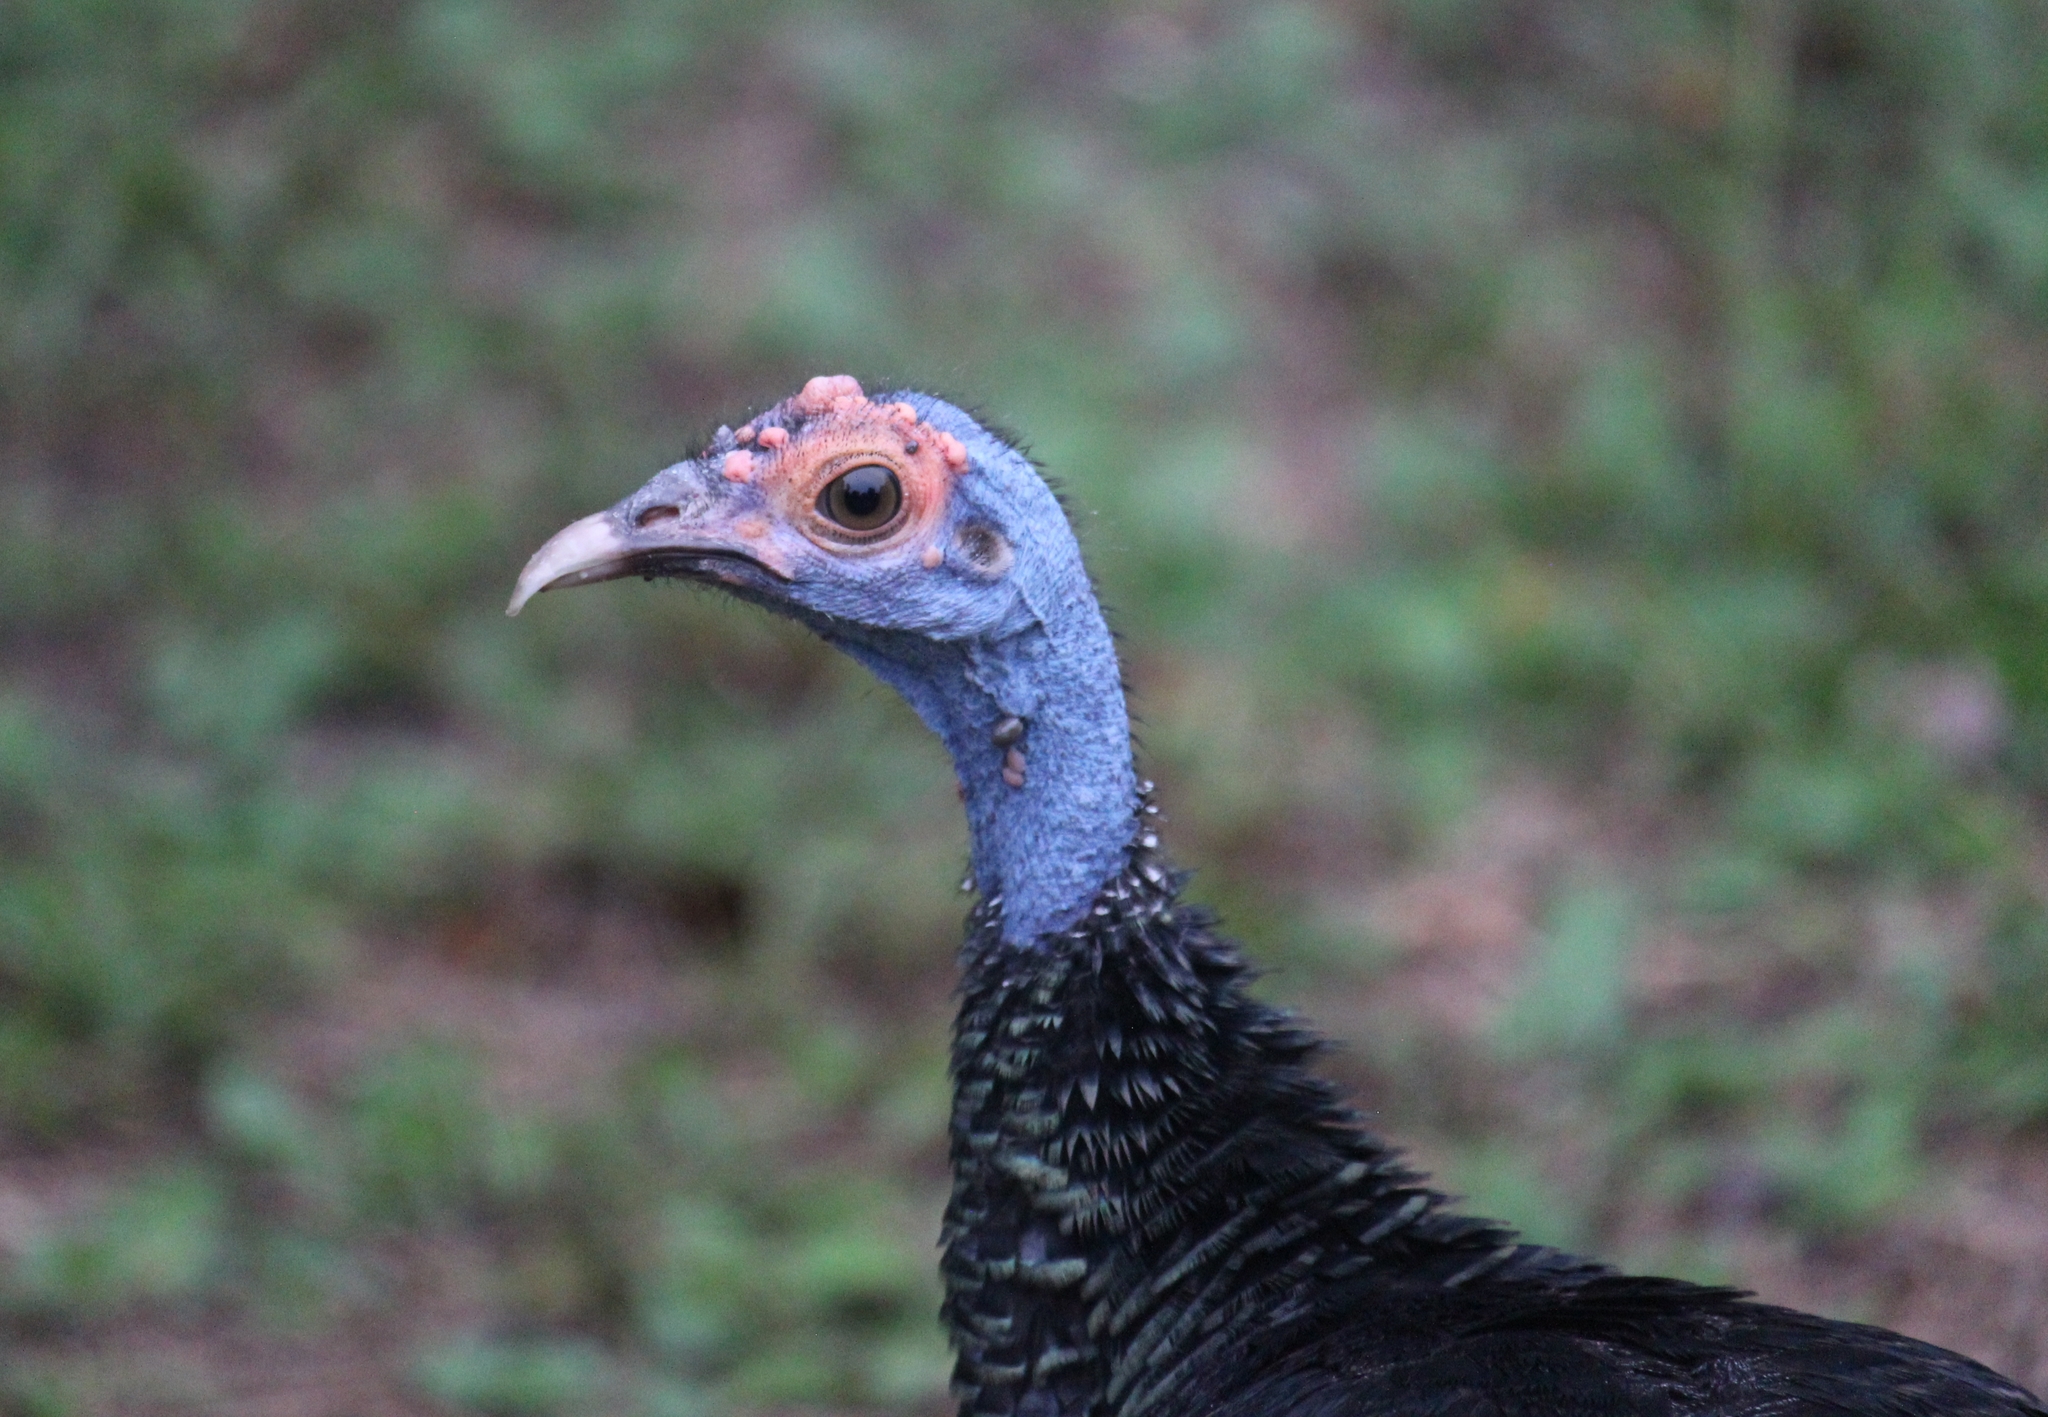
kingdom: Animalia
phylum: Chordata
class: Aves
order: Galliformes
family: Phasianidae
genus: Meleagris
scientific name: Meleagris ocellata
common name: Ocellated turkey
